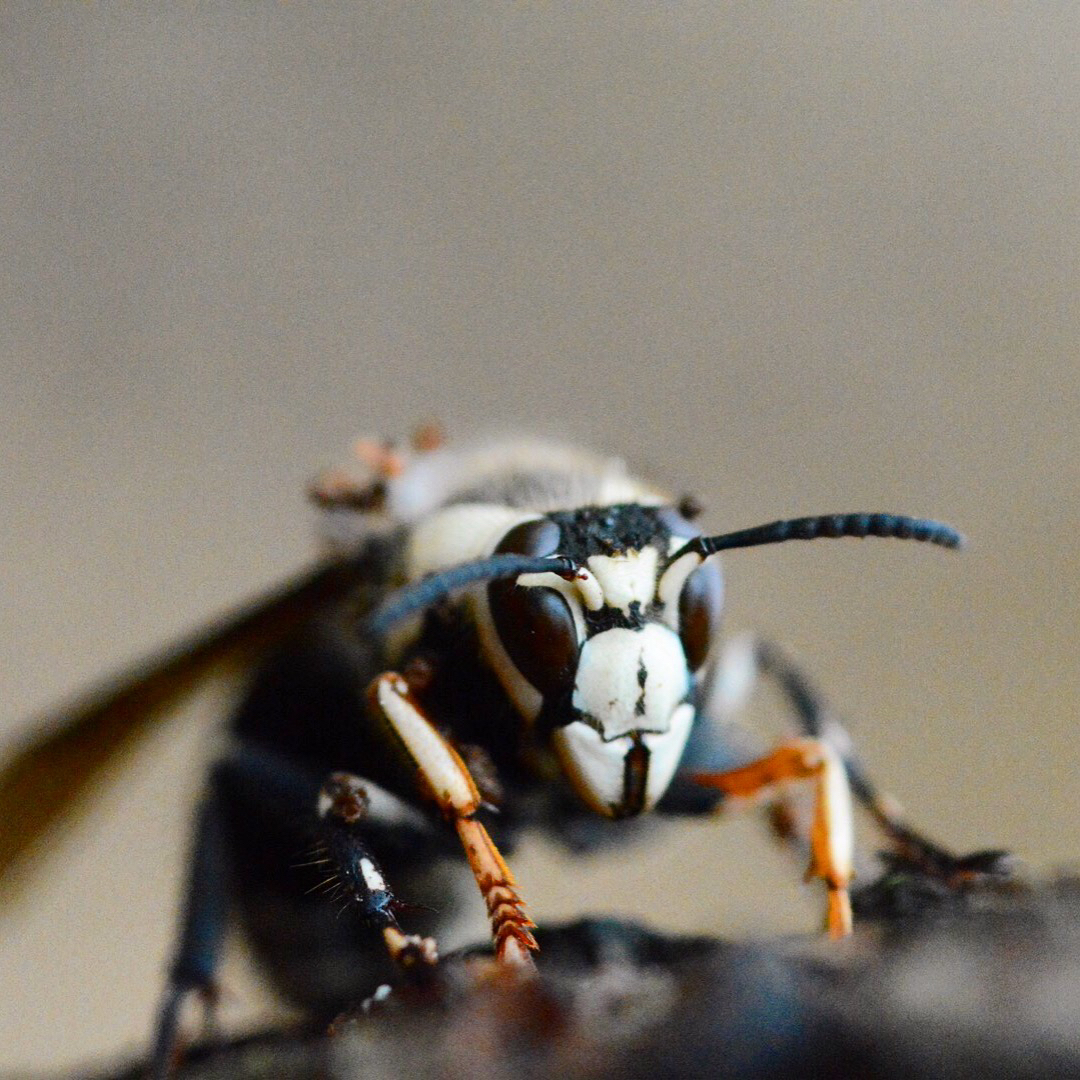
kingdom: Animalia
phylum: Arthropoda
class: Insecta
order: Hymenoptera
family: Vespidae
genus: Dolichovespula
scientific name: Dolichovespula maculata
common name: Bald-faced hornet
